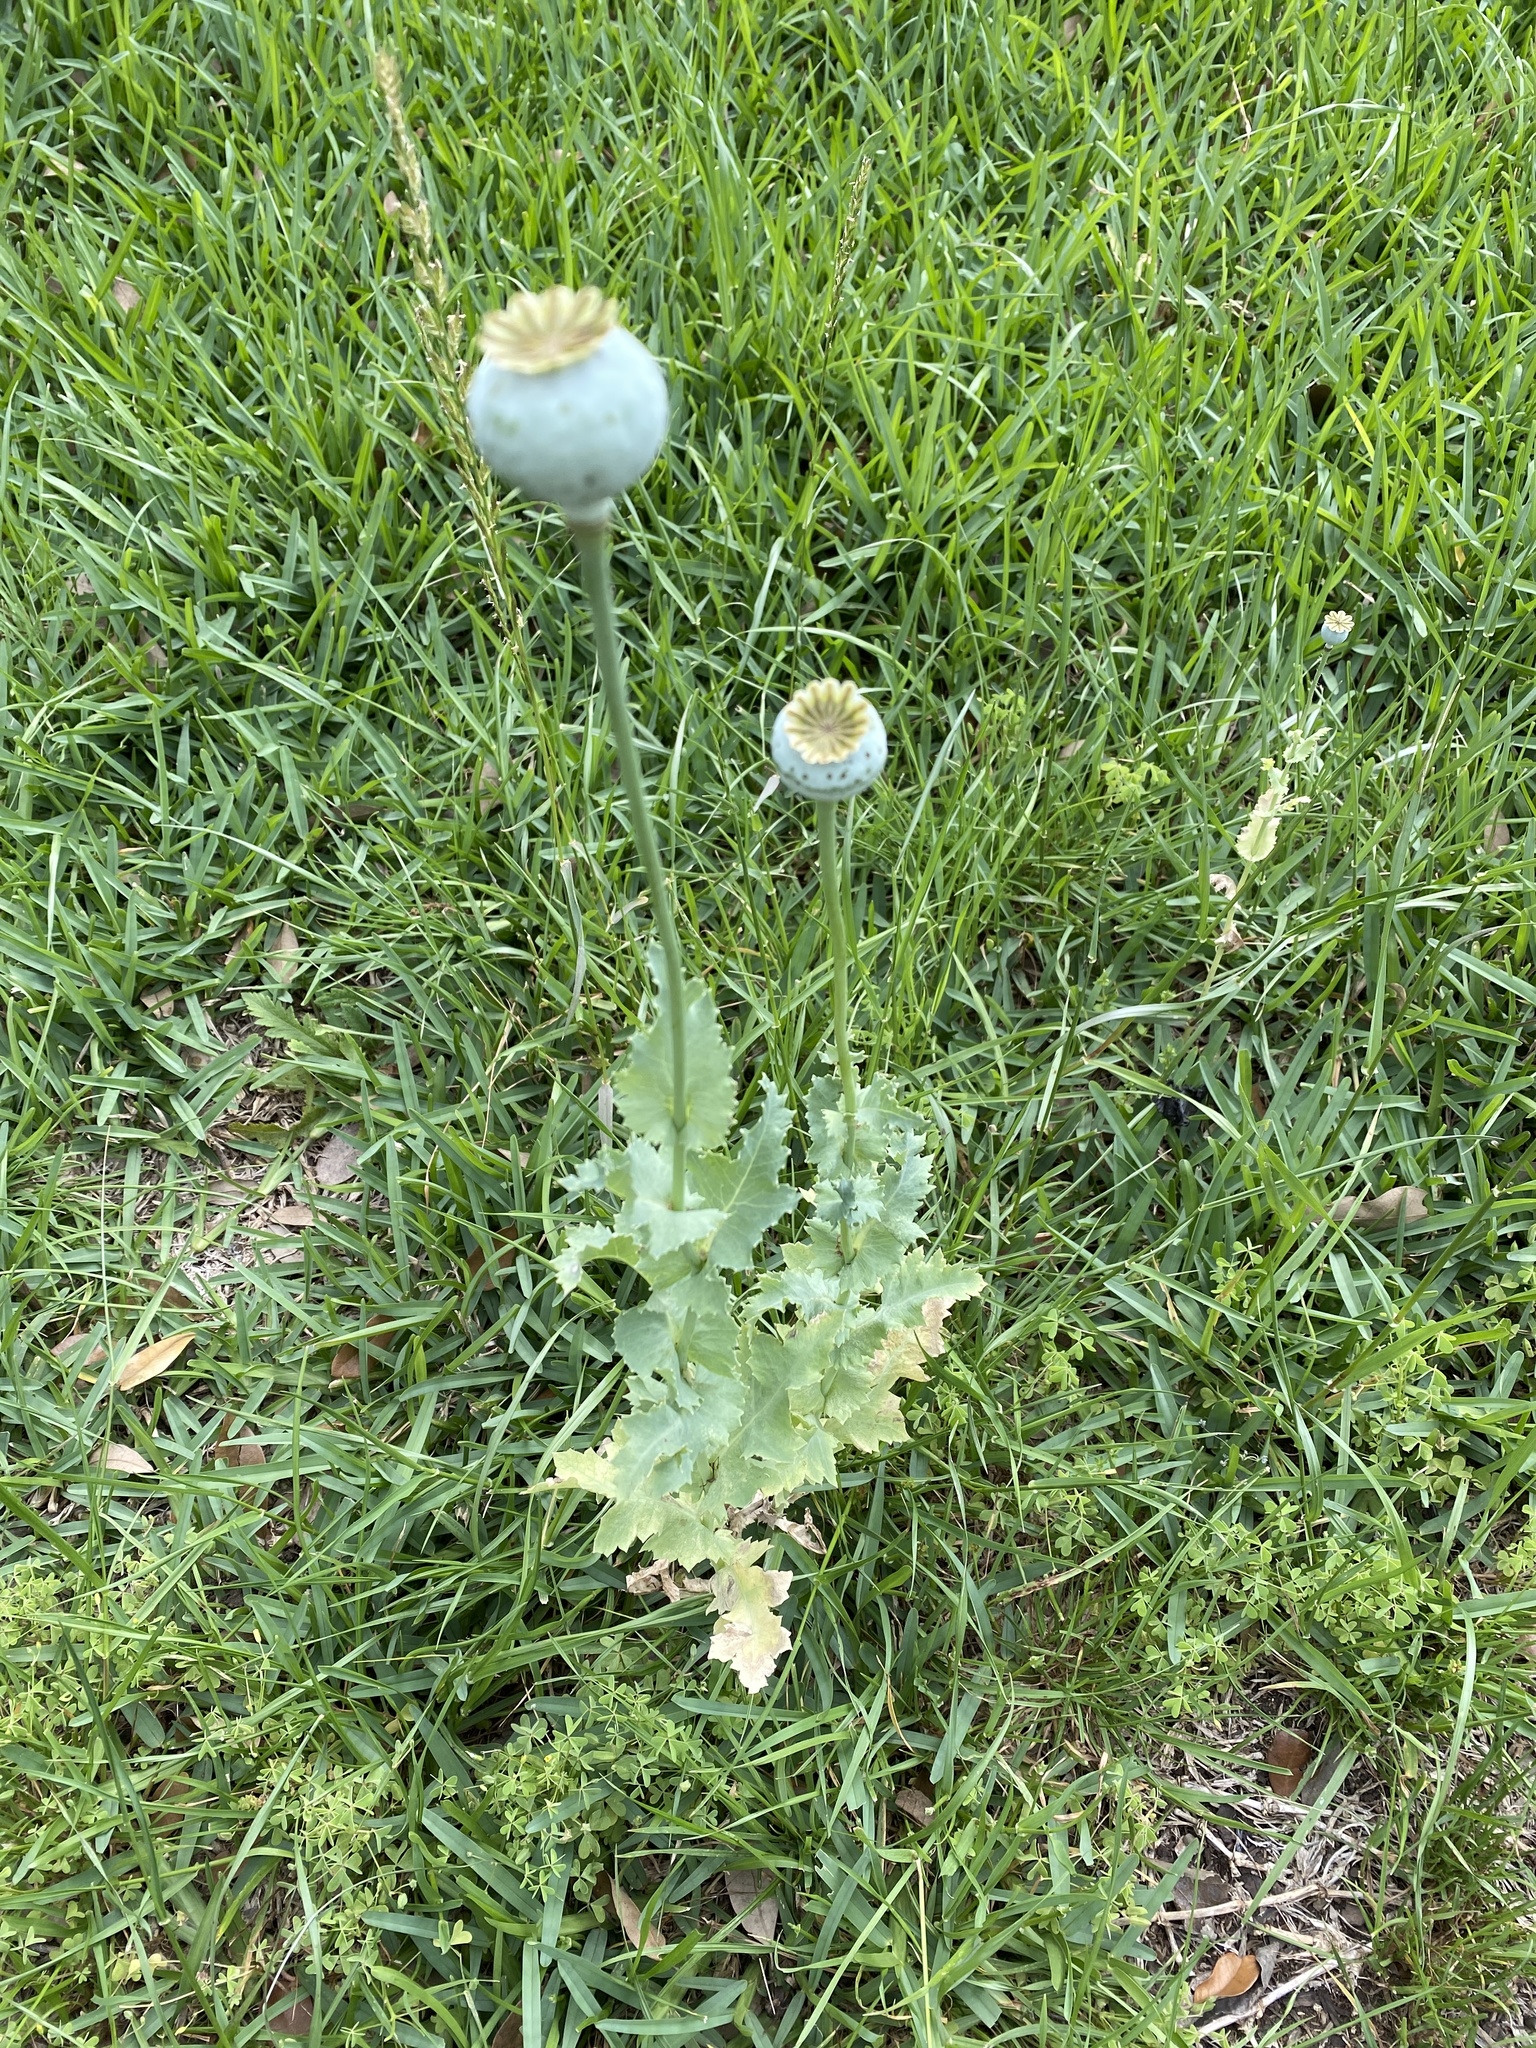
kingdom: Plantae
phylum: Tracheophyta
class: Magnoliopsida
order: Ranunculales
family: Papaveraceae
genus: Papaver
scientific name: Papaver somniferum
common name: Opium poppy
